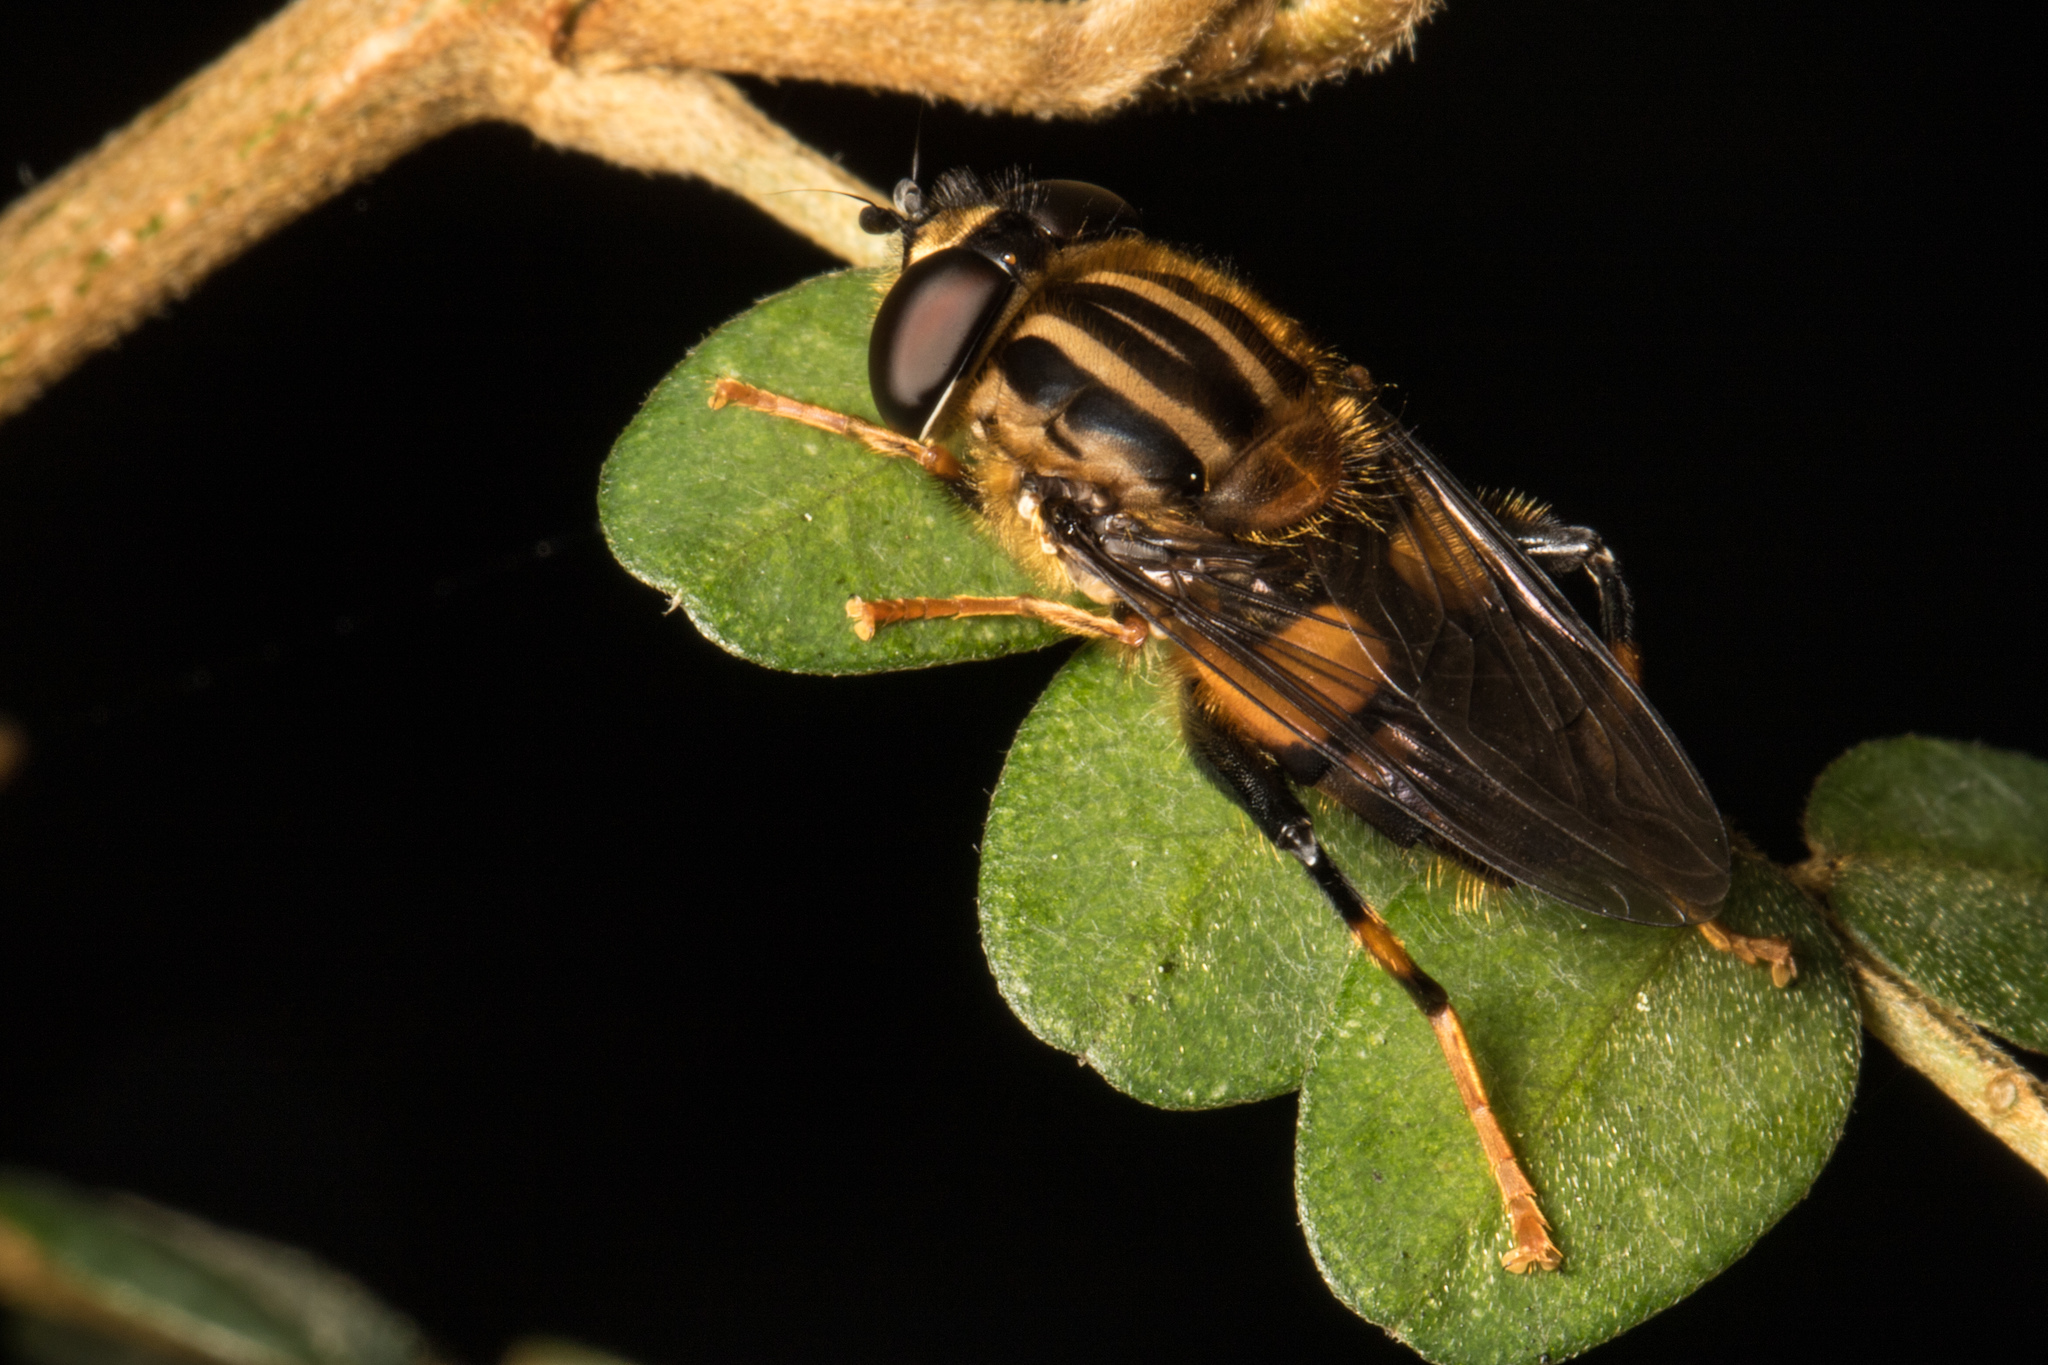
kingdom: Animalia
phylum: Arthropoda
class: Insecta
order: Diptera
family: Syrphidae
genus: Helophilus
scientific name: Helophilus antipodus
